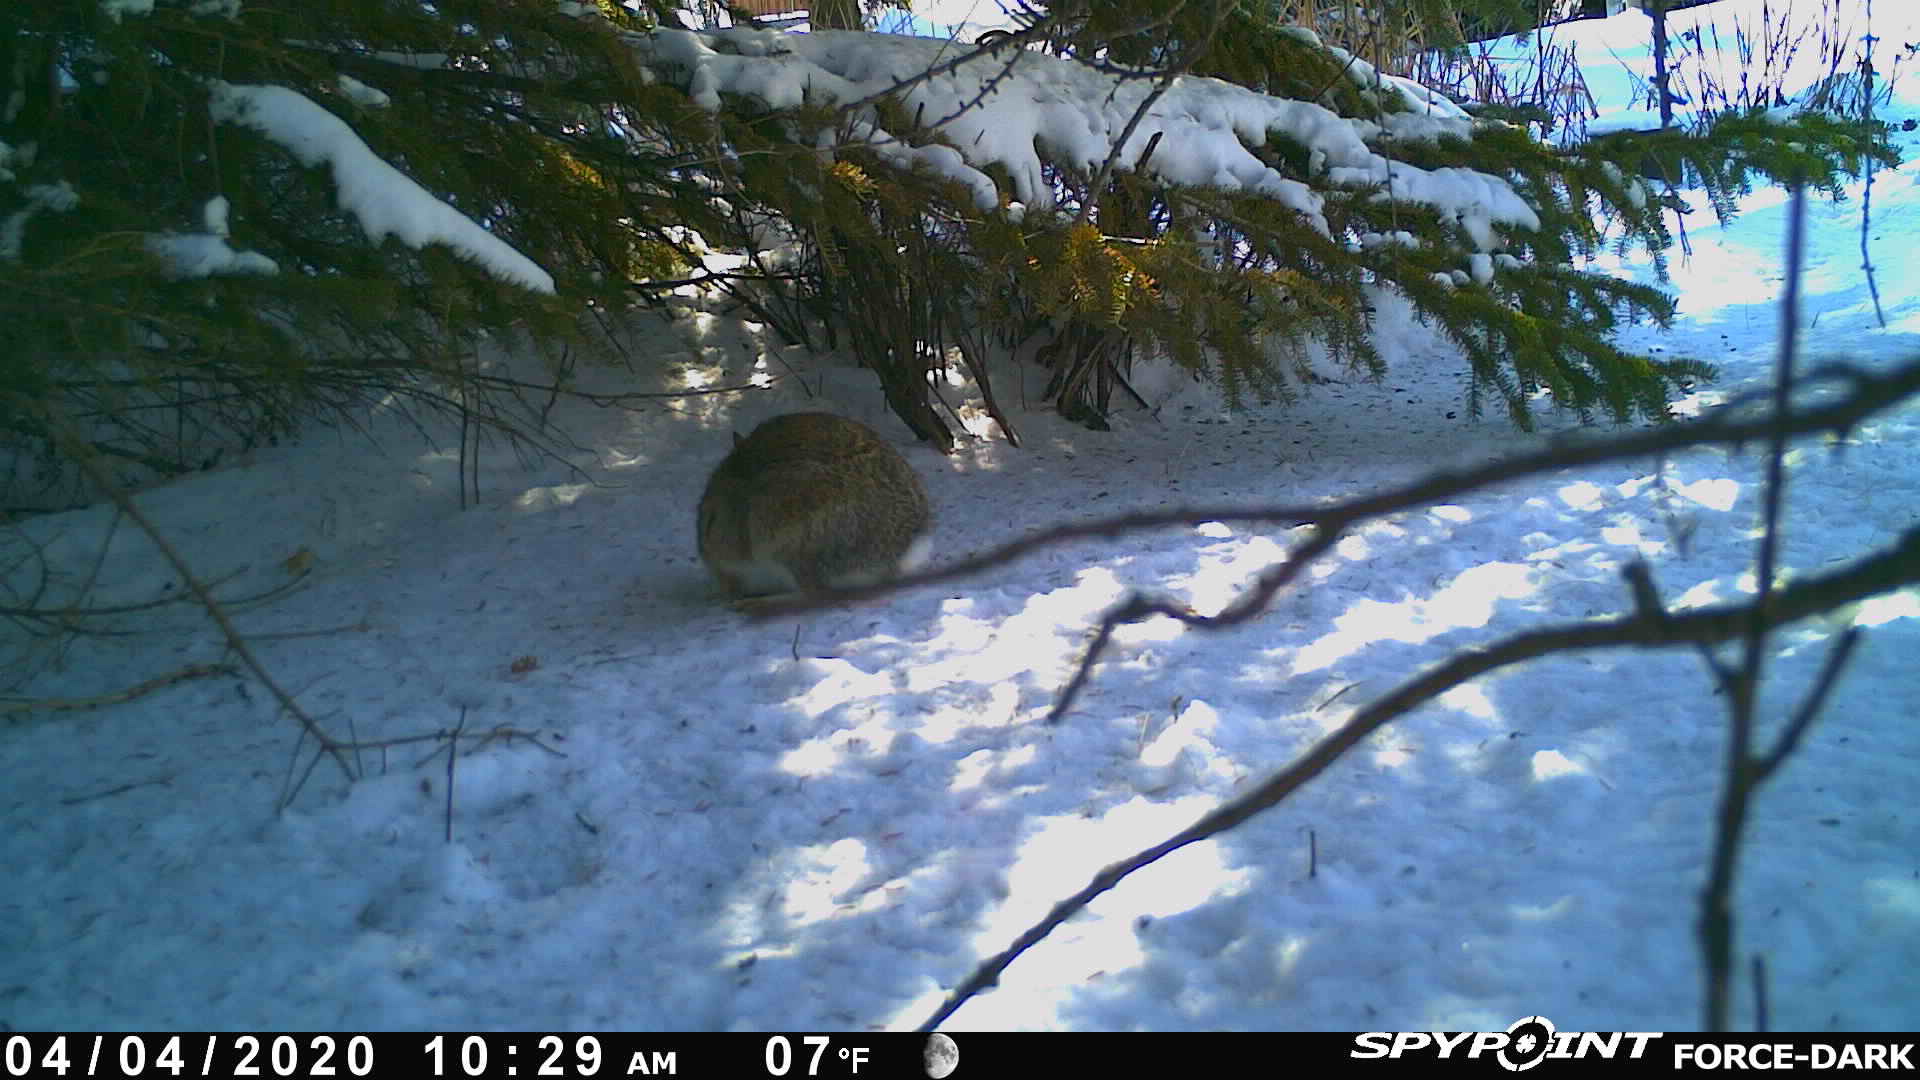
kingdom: Animalia
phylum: Chordata
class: Mammalia
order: Lagomorpha
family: Leporidae
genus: Sylvilagus
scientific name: Sylvilagus floridanus
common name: Eastern cottontail
